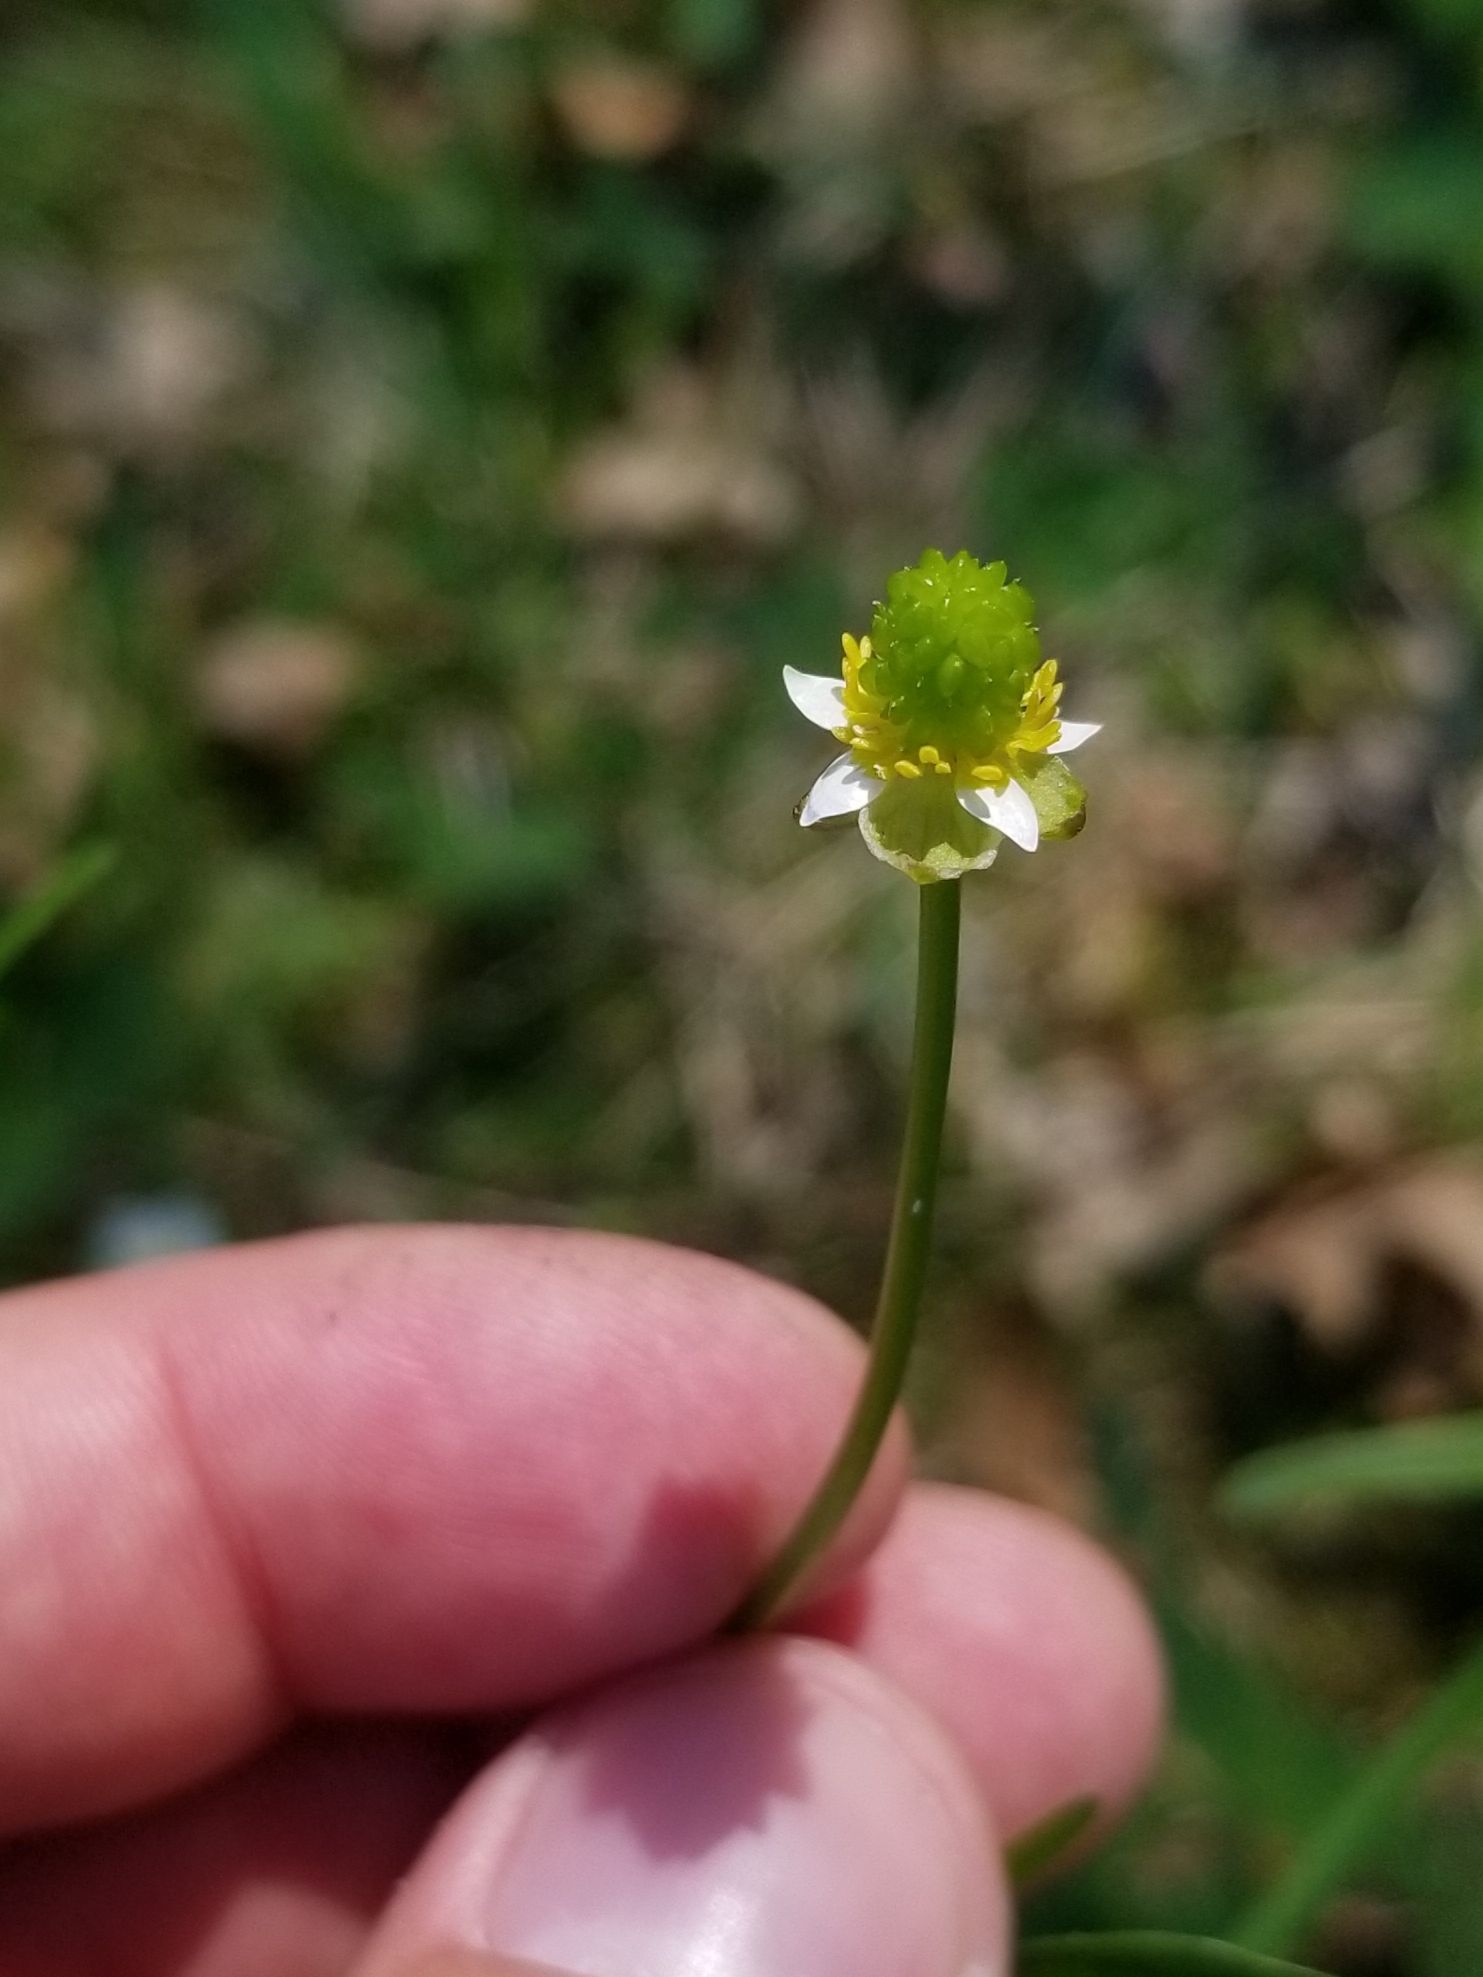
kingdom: Plantae
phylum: Tracheophyta
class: Magnoliopsida
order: Ranunculales
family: Ranunculaceae
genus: Ranunculus
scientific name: Ranunculus abortivus
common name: Early wood buttercup
